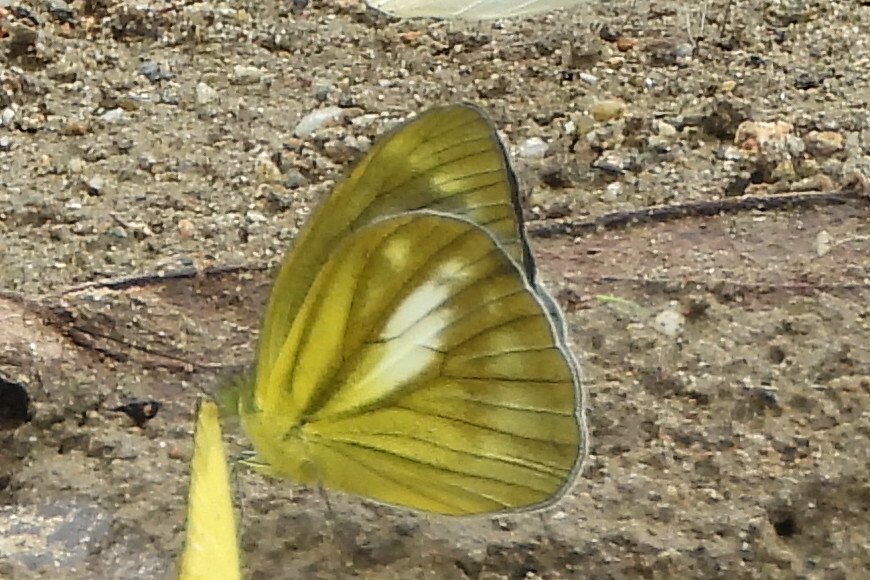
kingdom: Animalia
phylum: Arthropoda
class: Insecta
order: Lepidoptera
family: Pieridae
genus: Cepora
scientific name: Cepora nadina
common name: Lesser gull
